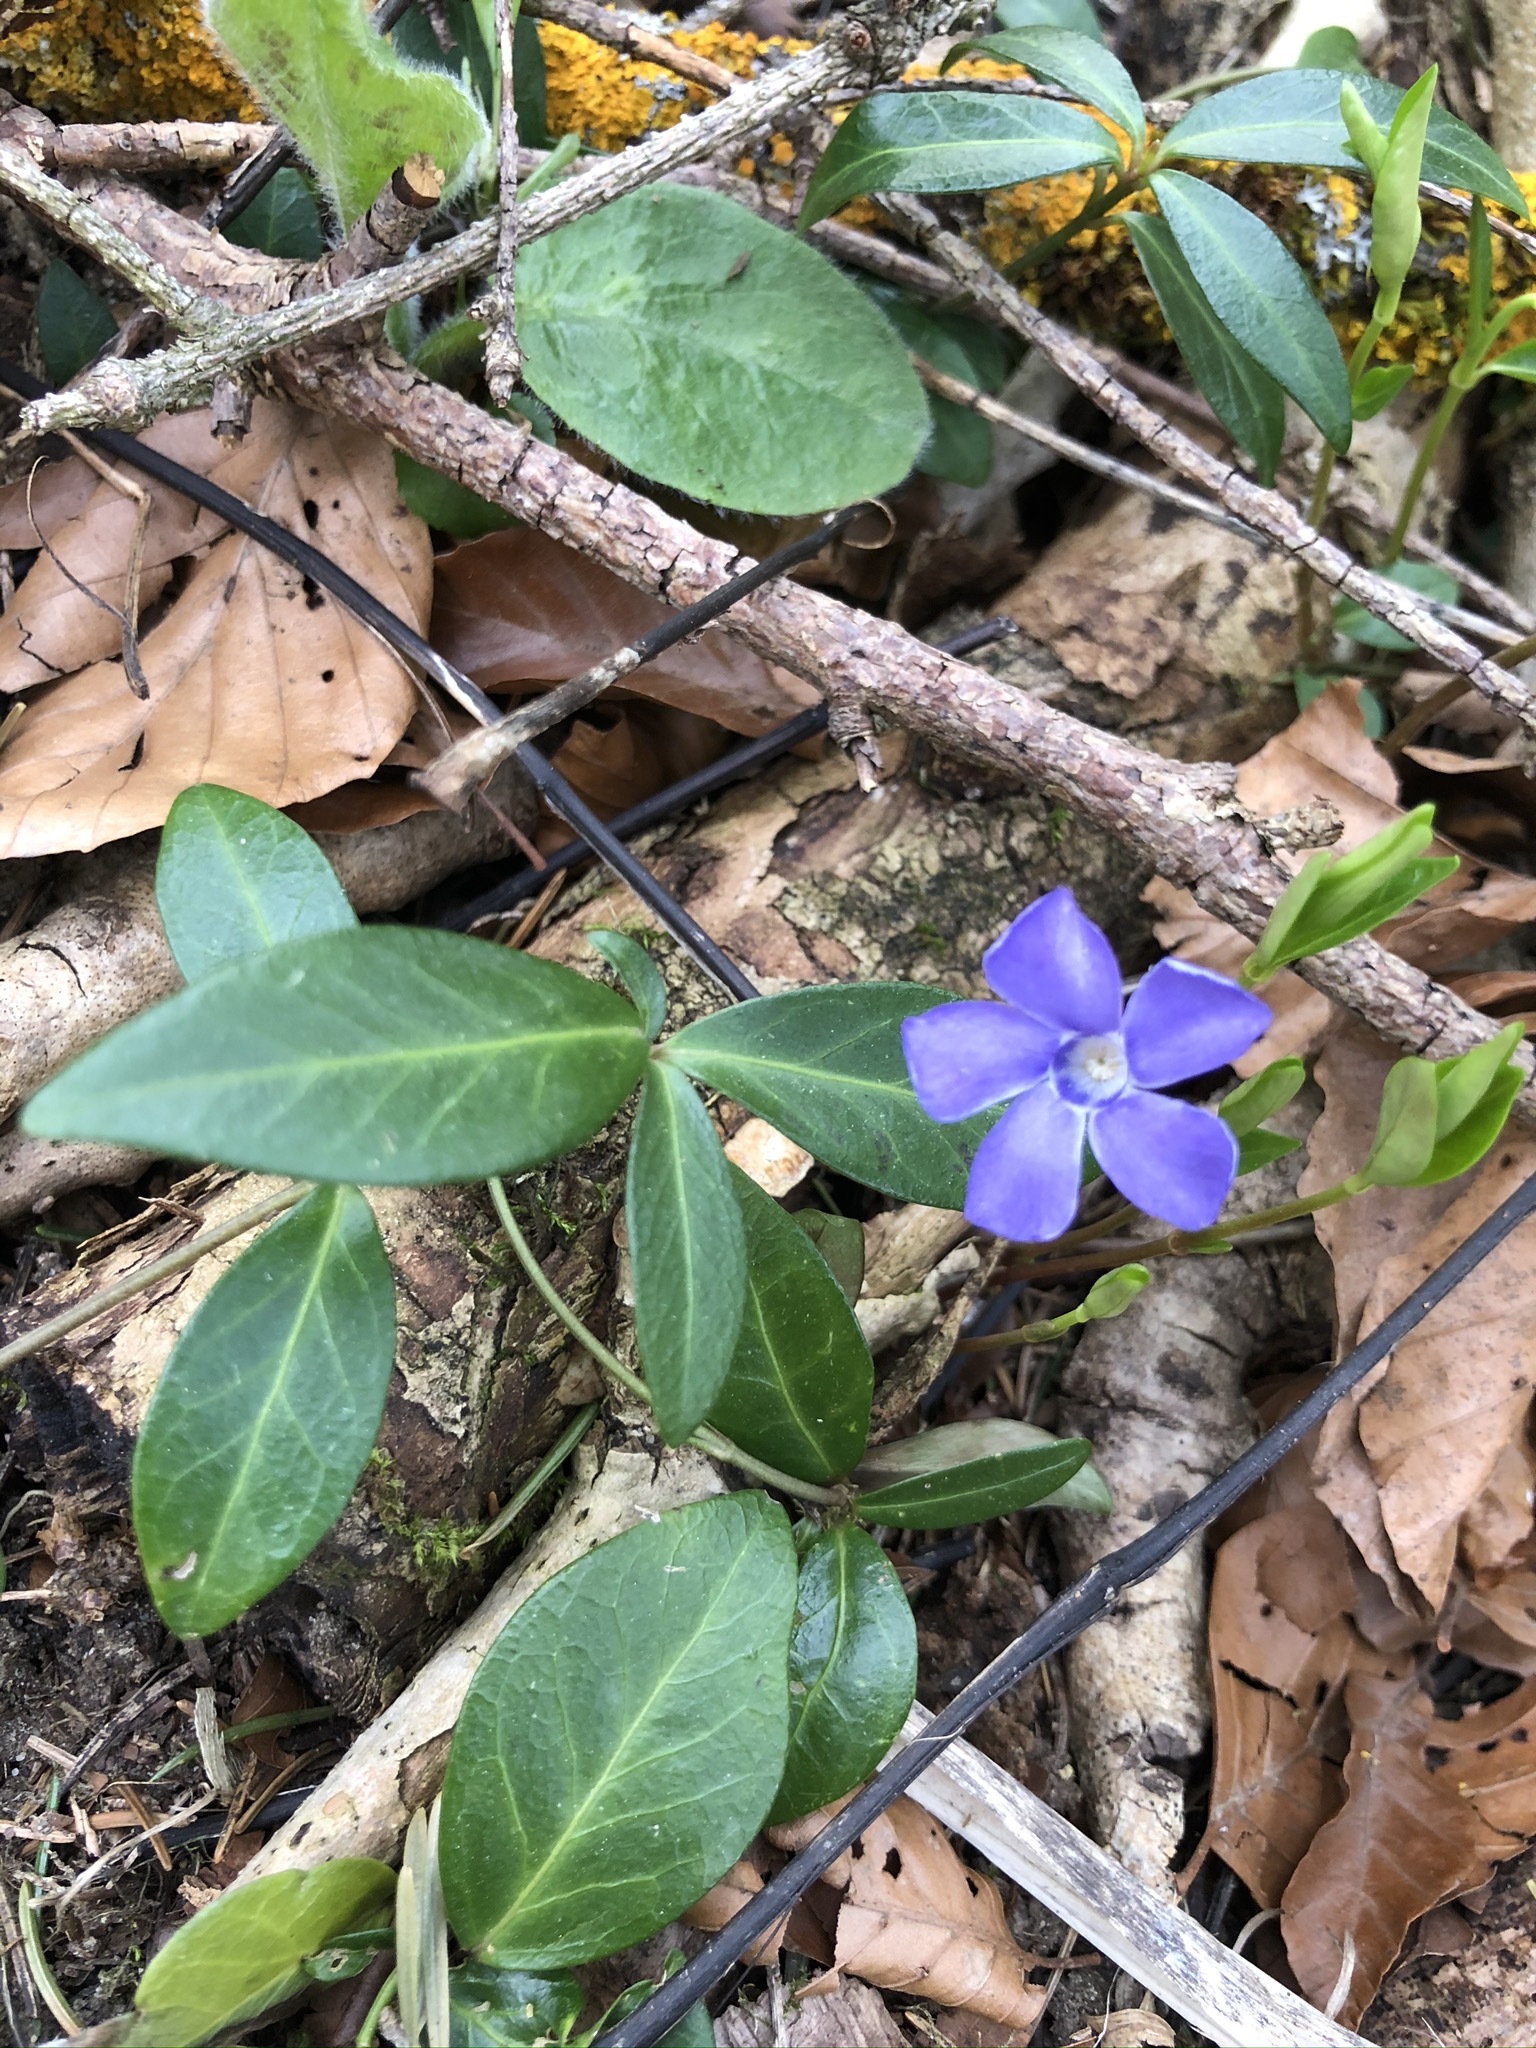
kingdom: Plantae
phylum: Tracheophyta
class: Magnoliopsida
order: Gentianales
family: Apocynaceae
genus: Vinca
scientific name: Vinca minor
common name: Lesser periwinkle
